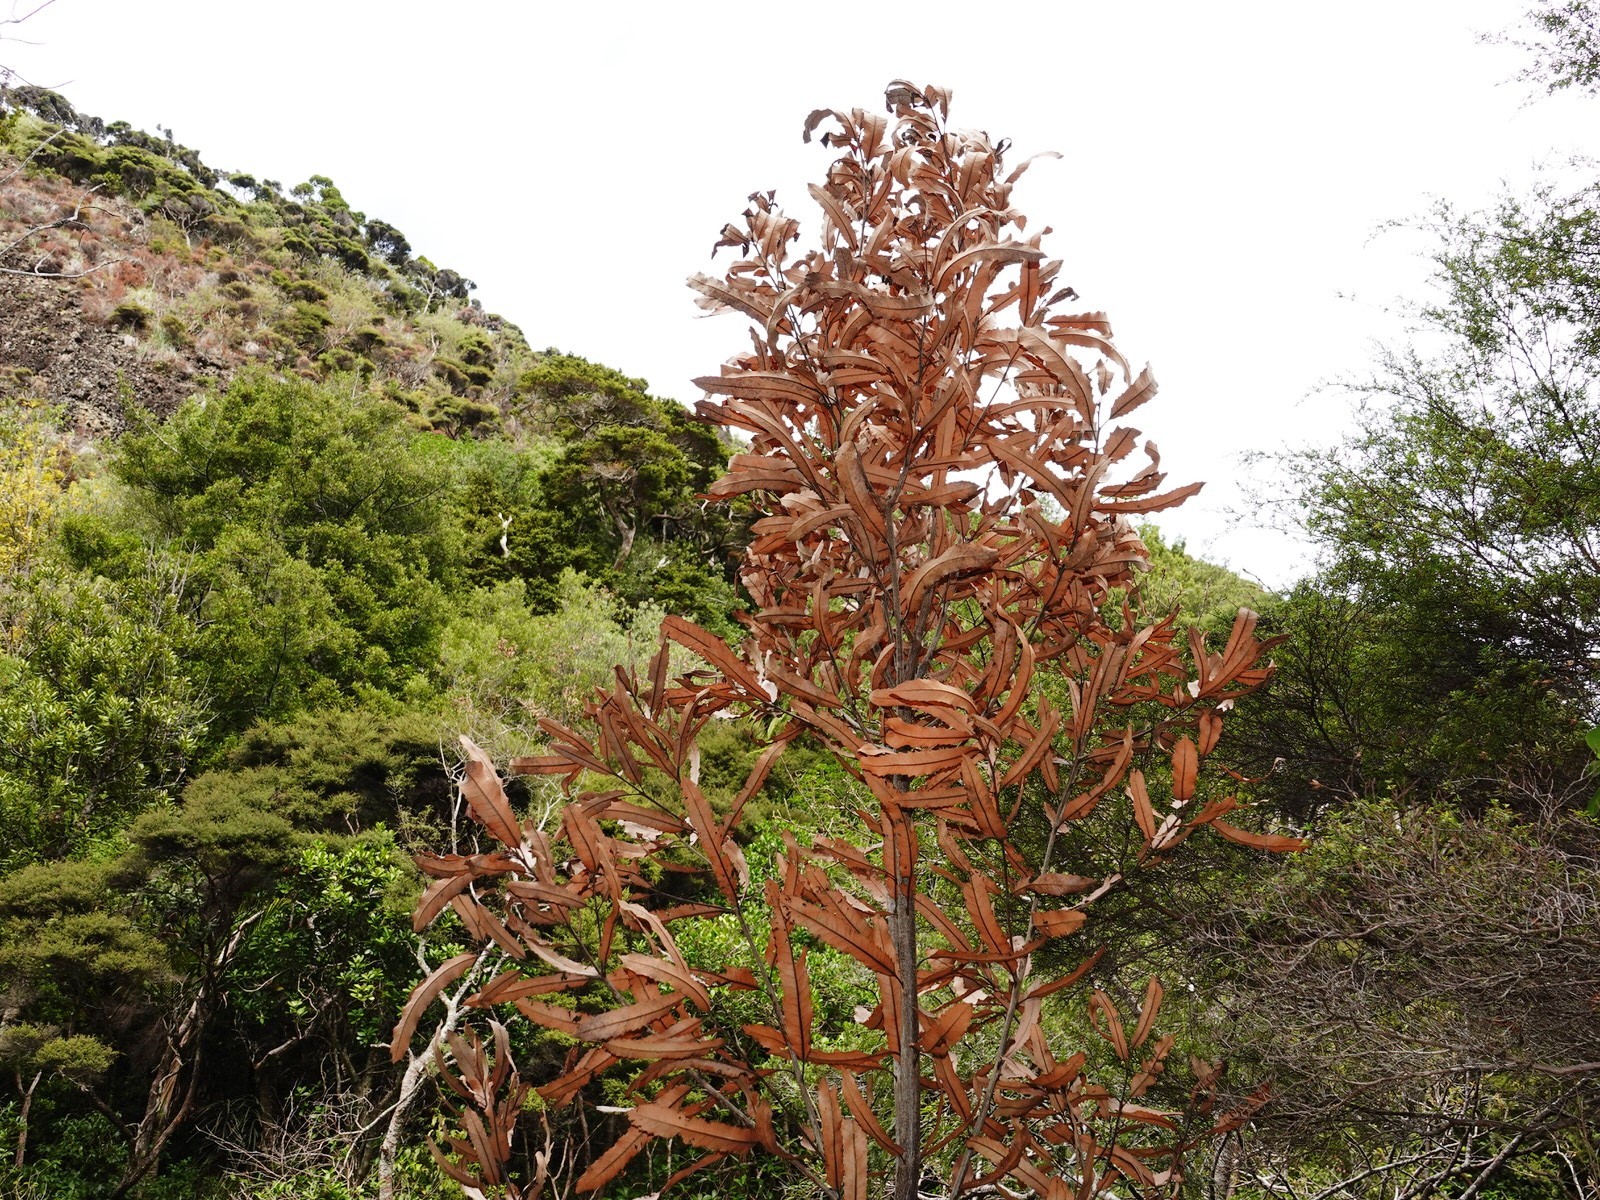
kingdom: Plantae
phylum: Tracheophyta
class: Magnoliopsida
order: Proteales
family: Proteaceae
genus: Knightia
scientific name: Knightia excelsa
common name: New zealand-honeysuckle
